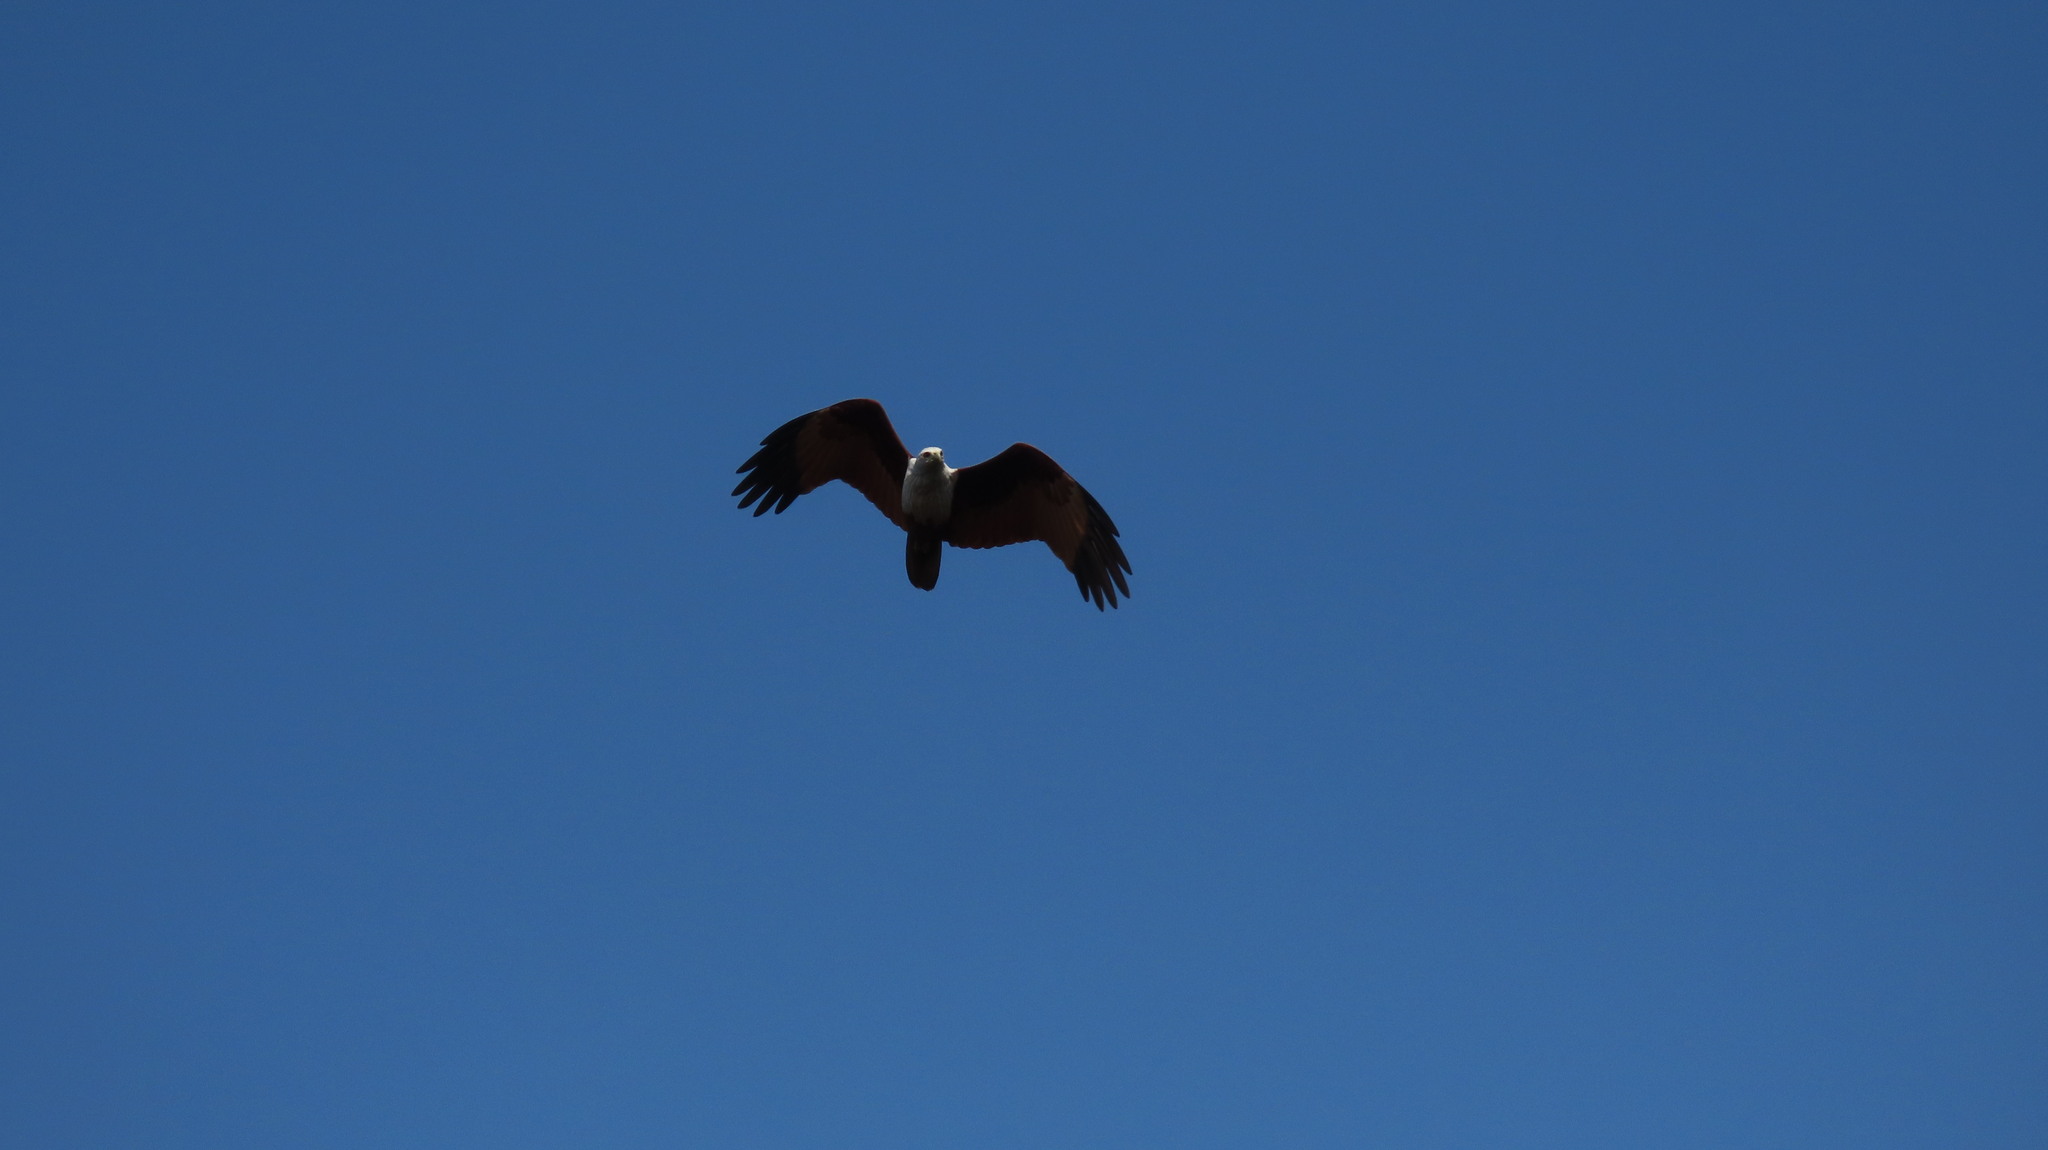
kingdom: Animalia
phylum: Chordata
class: Aves
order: Accipitriformes
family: Accipitridae
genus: Haliastur
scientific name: Haliastur indus
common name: Brahminy kite
